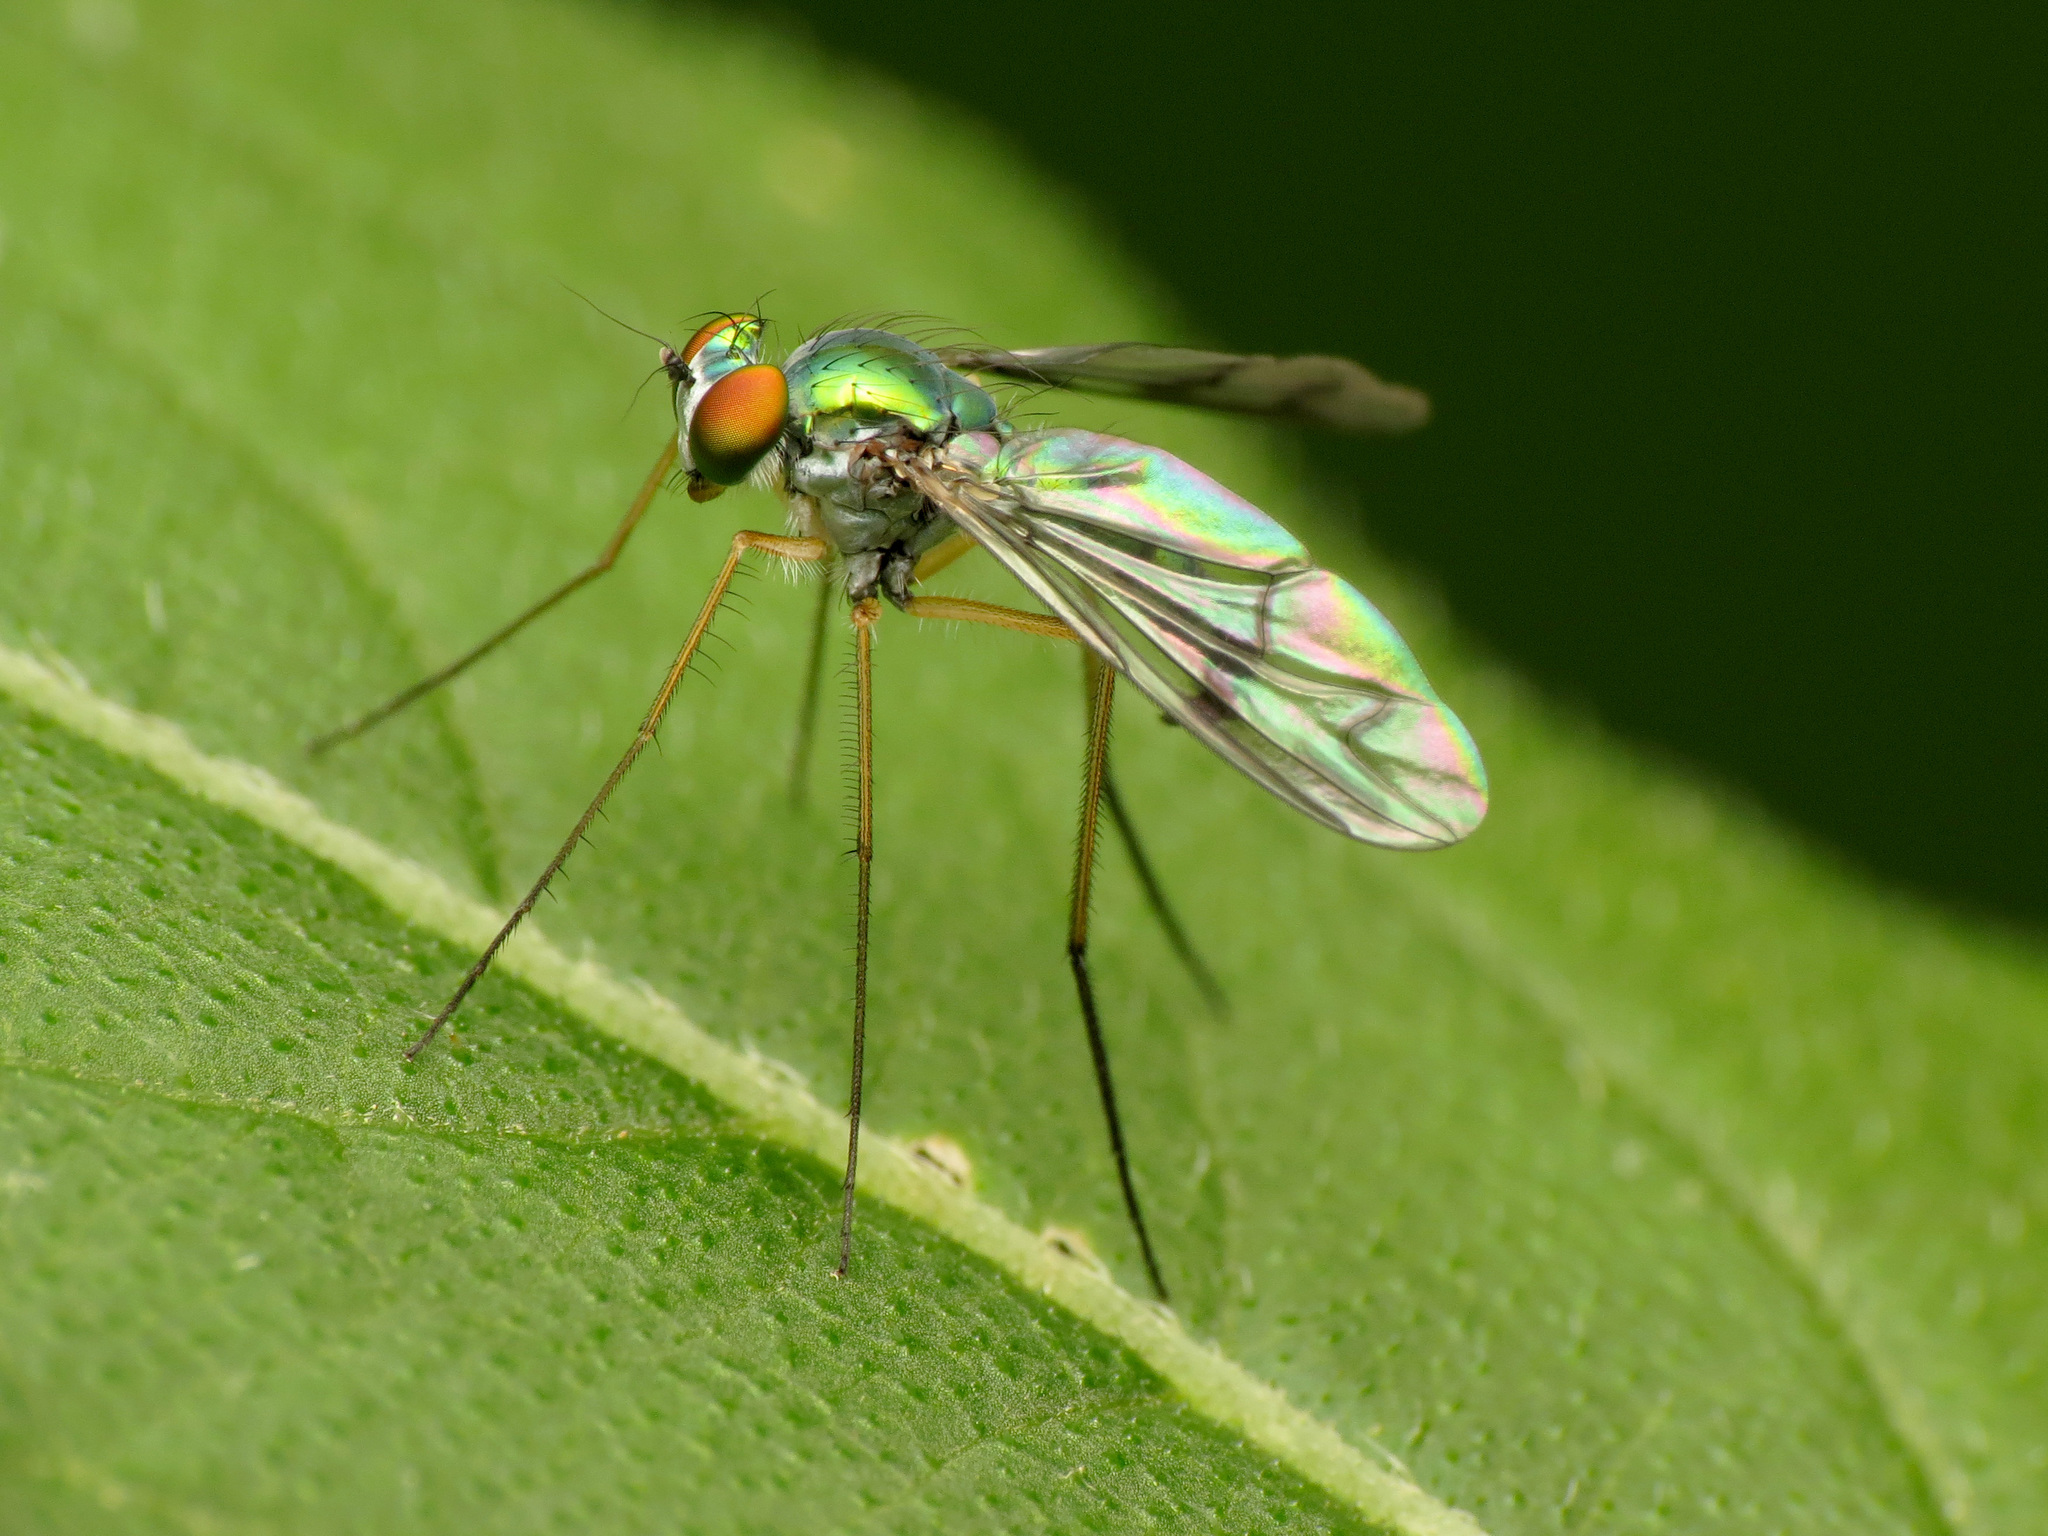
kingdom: Animalia
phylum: Arthropoda
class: Insecta
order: Diptera
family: Dolichopodidae
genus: Condylostylus
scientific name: Condylostylus
